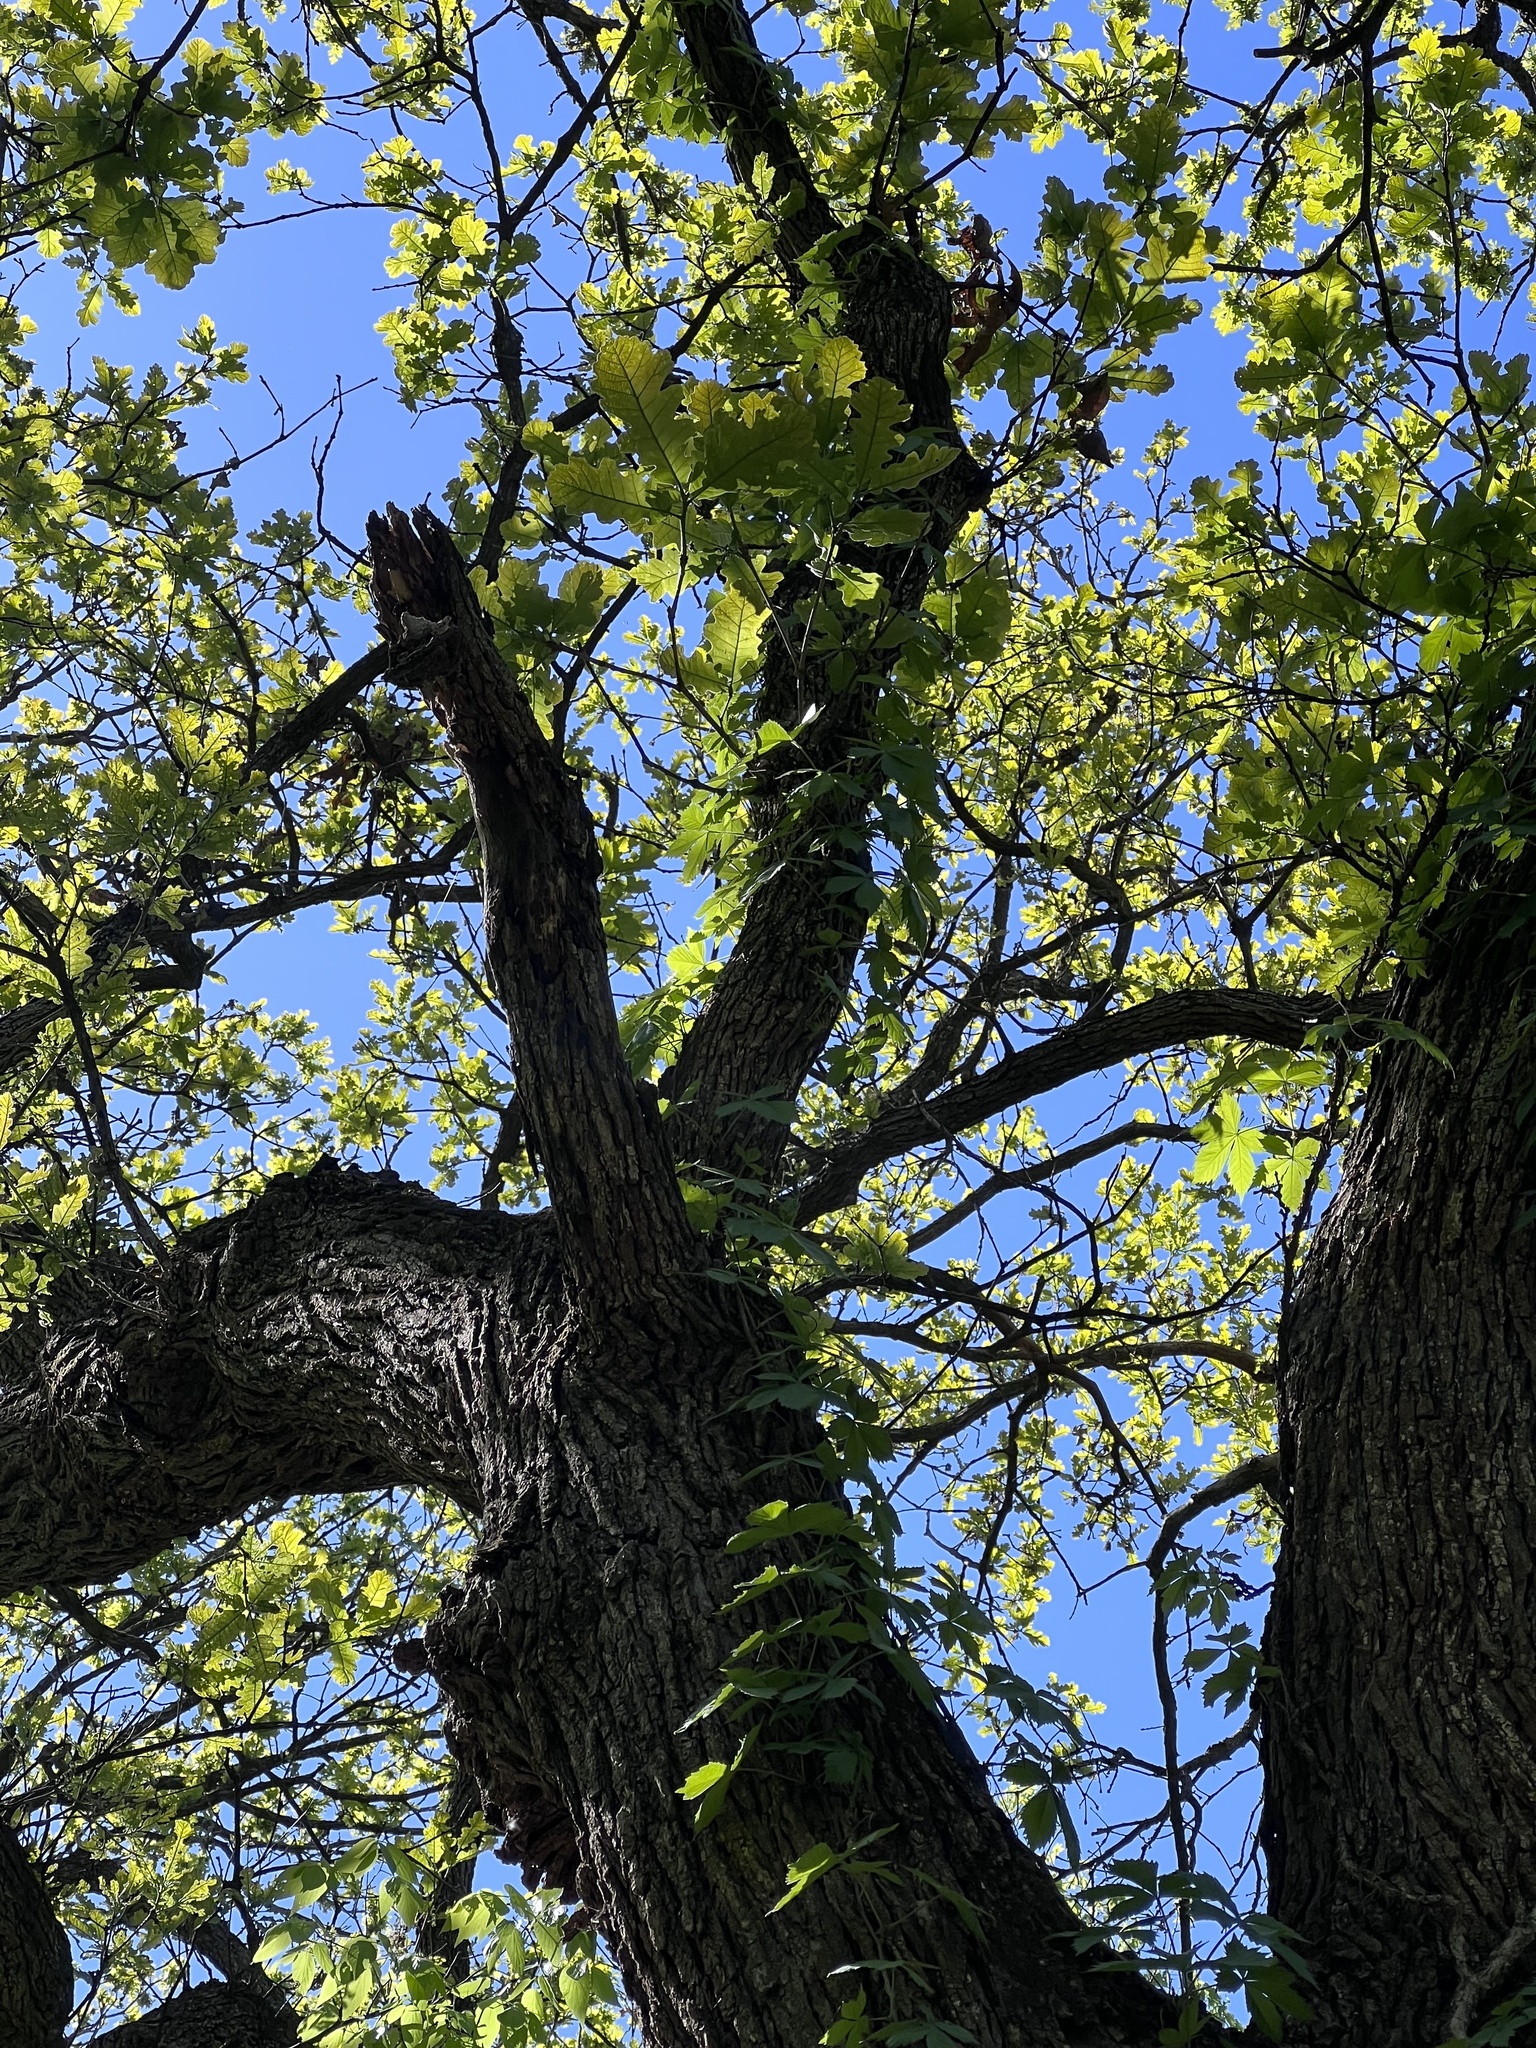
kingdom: Plantae
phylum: Tracheophyta
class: Magnoliopsida
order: Fagales
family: Fagaceae
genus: Quercus
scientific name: Quercus macrocarpa
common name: Bur oak
